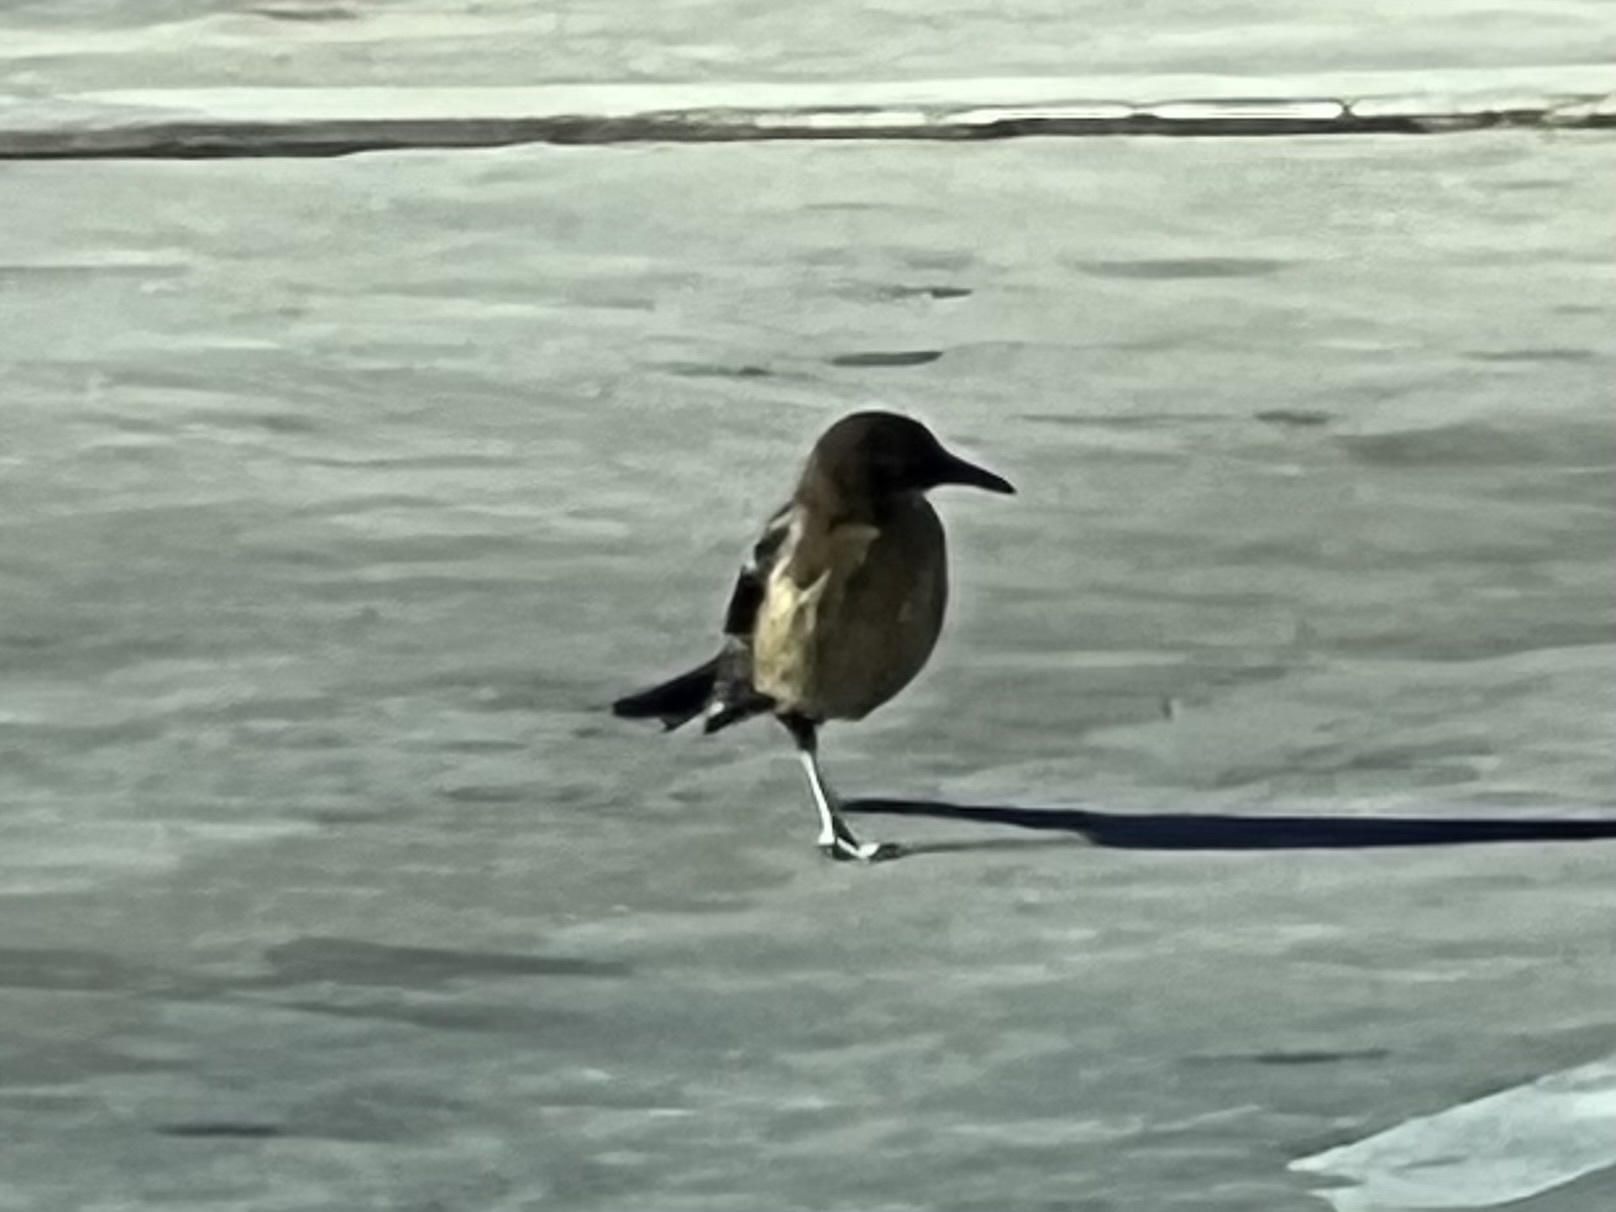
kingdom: Animalia
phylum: Chordata
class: Aves
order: Passeriformes
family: Icteridae
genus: Quiscalus
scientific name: Quiscalus mexicanus
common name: Great-tailed grackle
